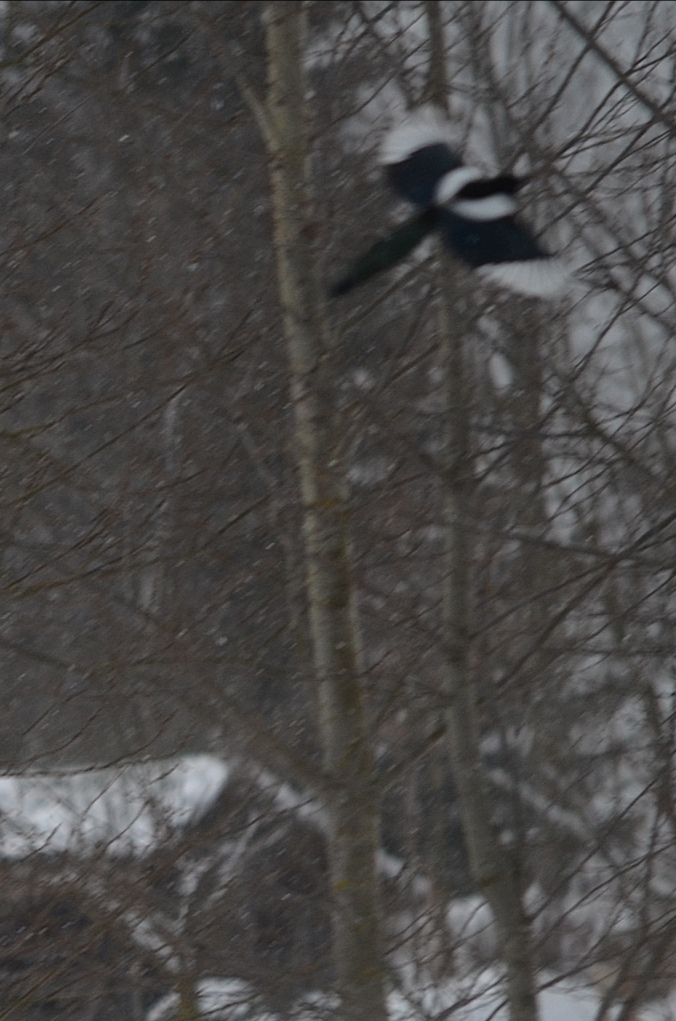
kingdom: Animalia
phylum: Chordata
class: Aves
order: Passeriformes
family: Corvidae
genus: Pica
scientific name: Pica pica
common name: Eurasian magpie
